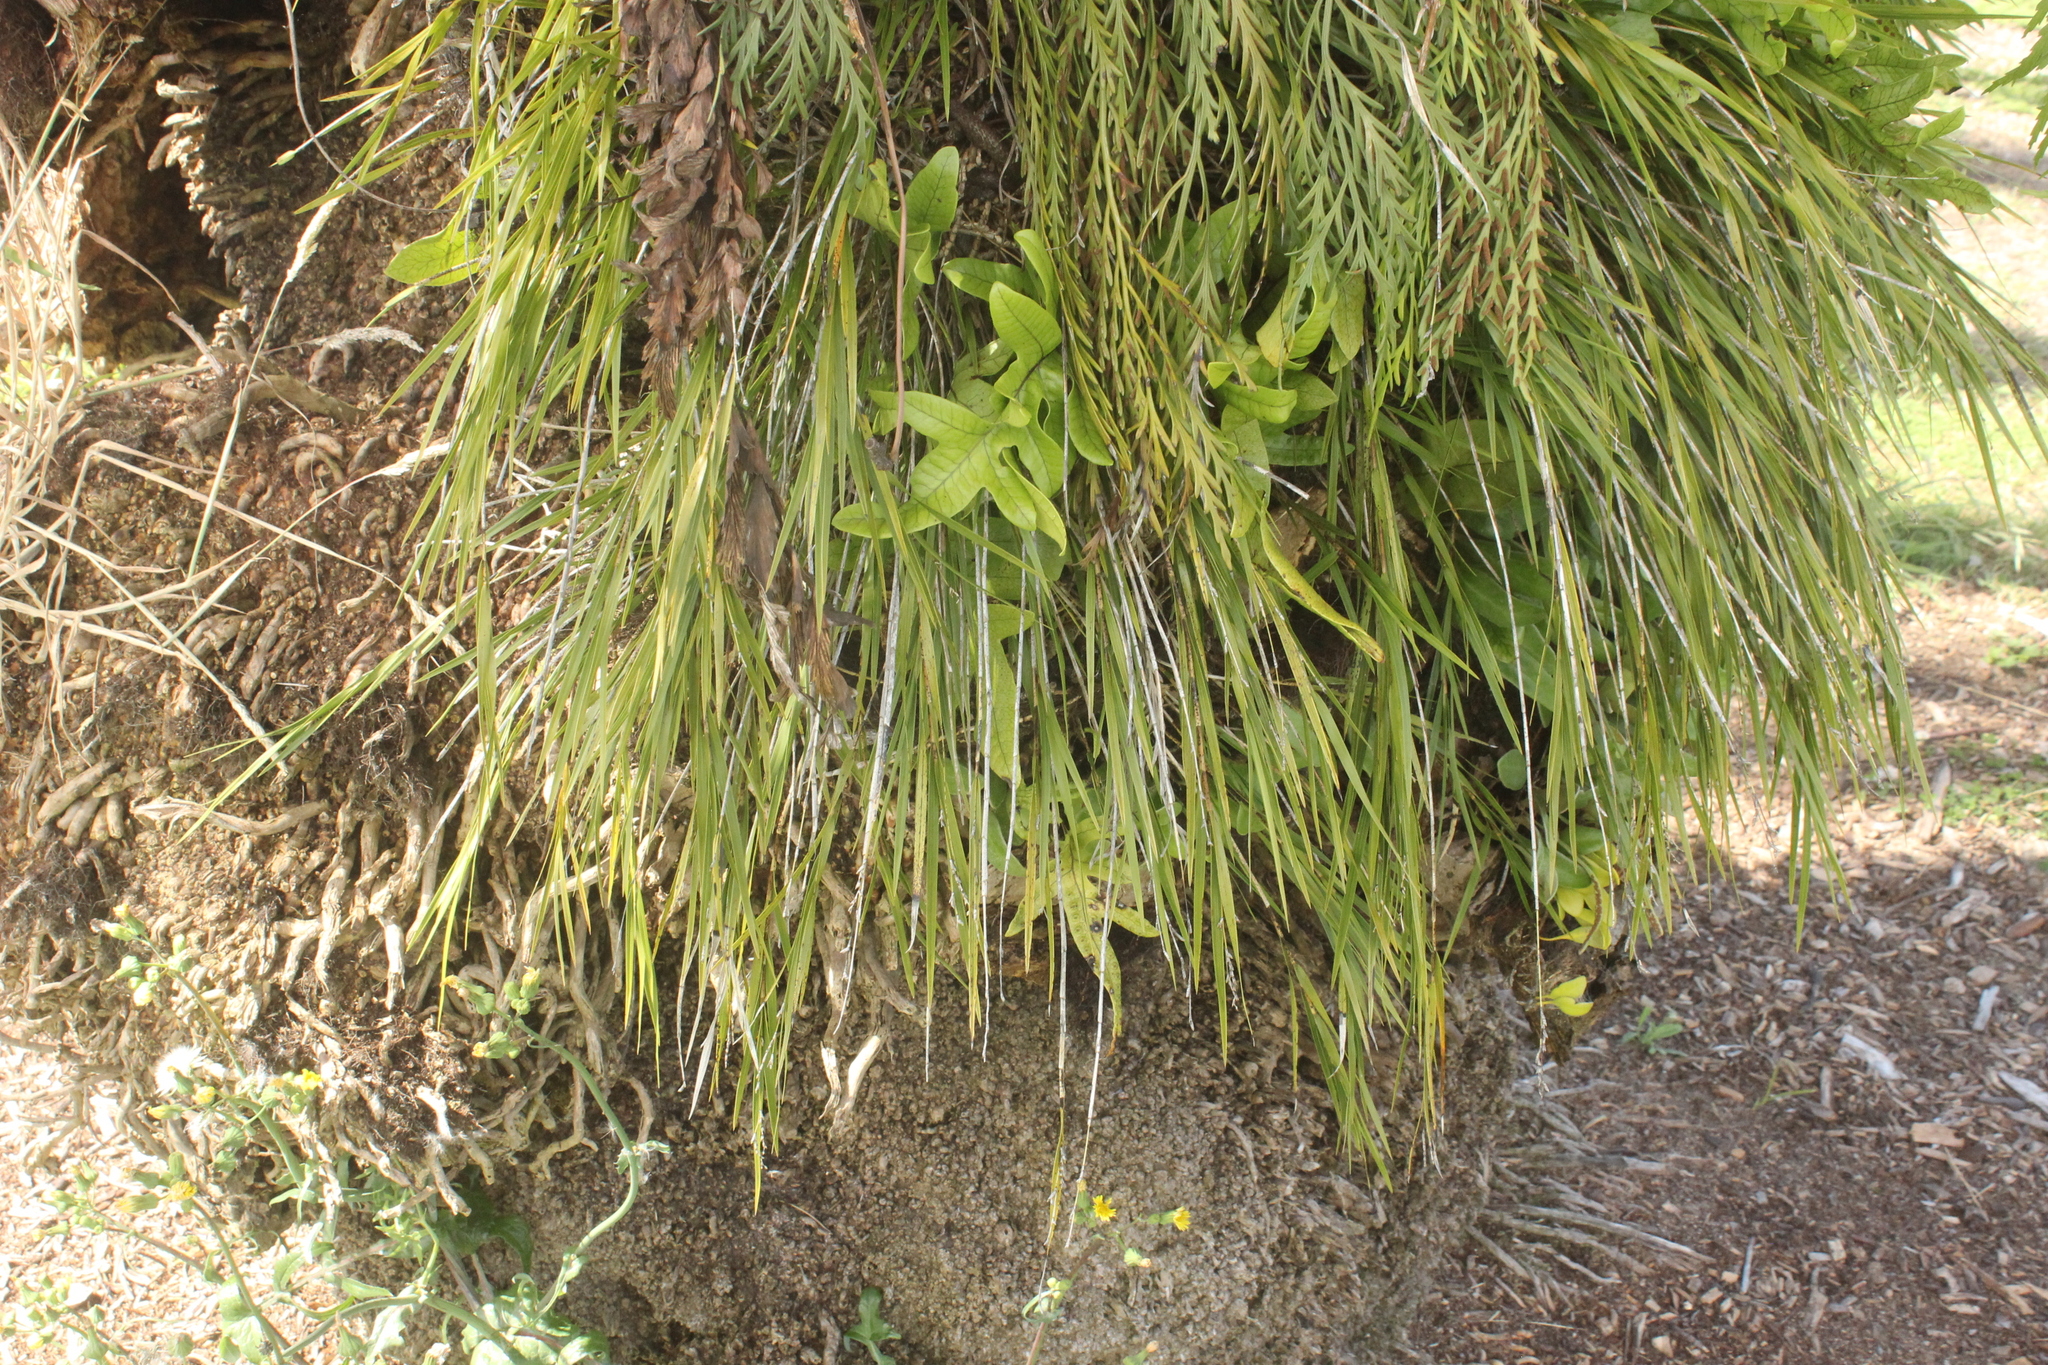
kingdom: Plantae
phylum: Tracheophyta
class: Liliopsida
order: Asparagales
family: Orchidaceae
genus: Earina
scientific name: Earina mucronata
